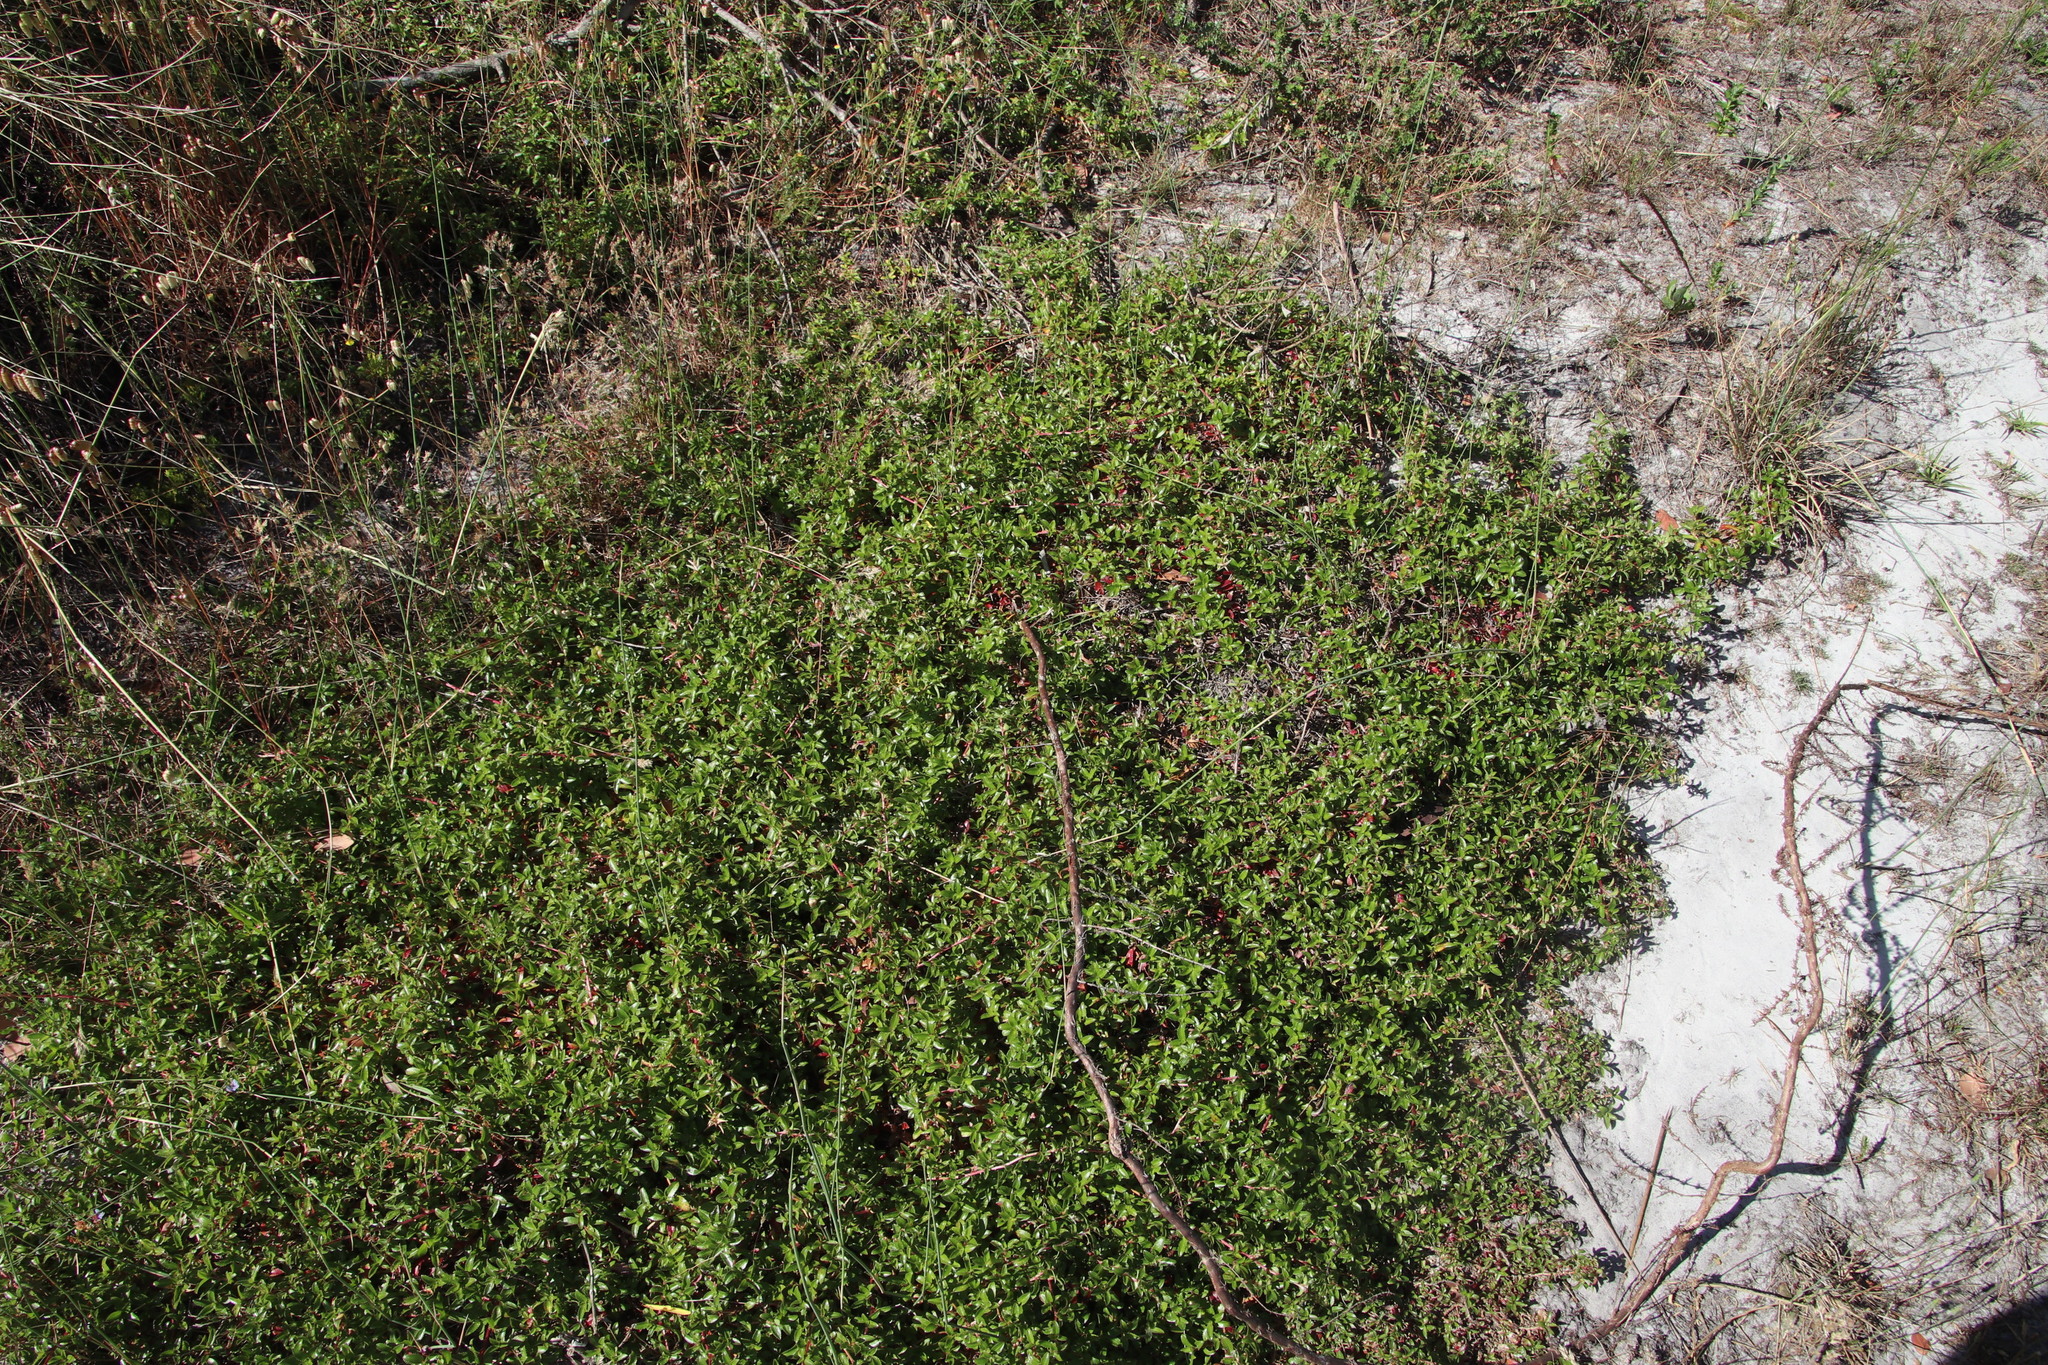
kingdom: Plantae
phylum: Tracheophyta
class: Magnoliopsida
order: Rosales
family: Rosaceae
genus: Cliffortia
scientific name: Cliffortia ferruginea
